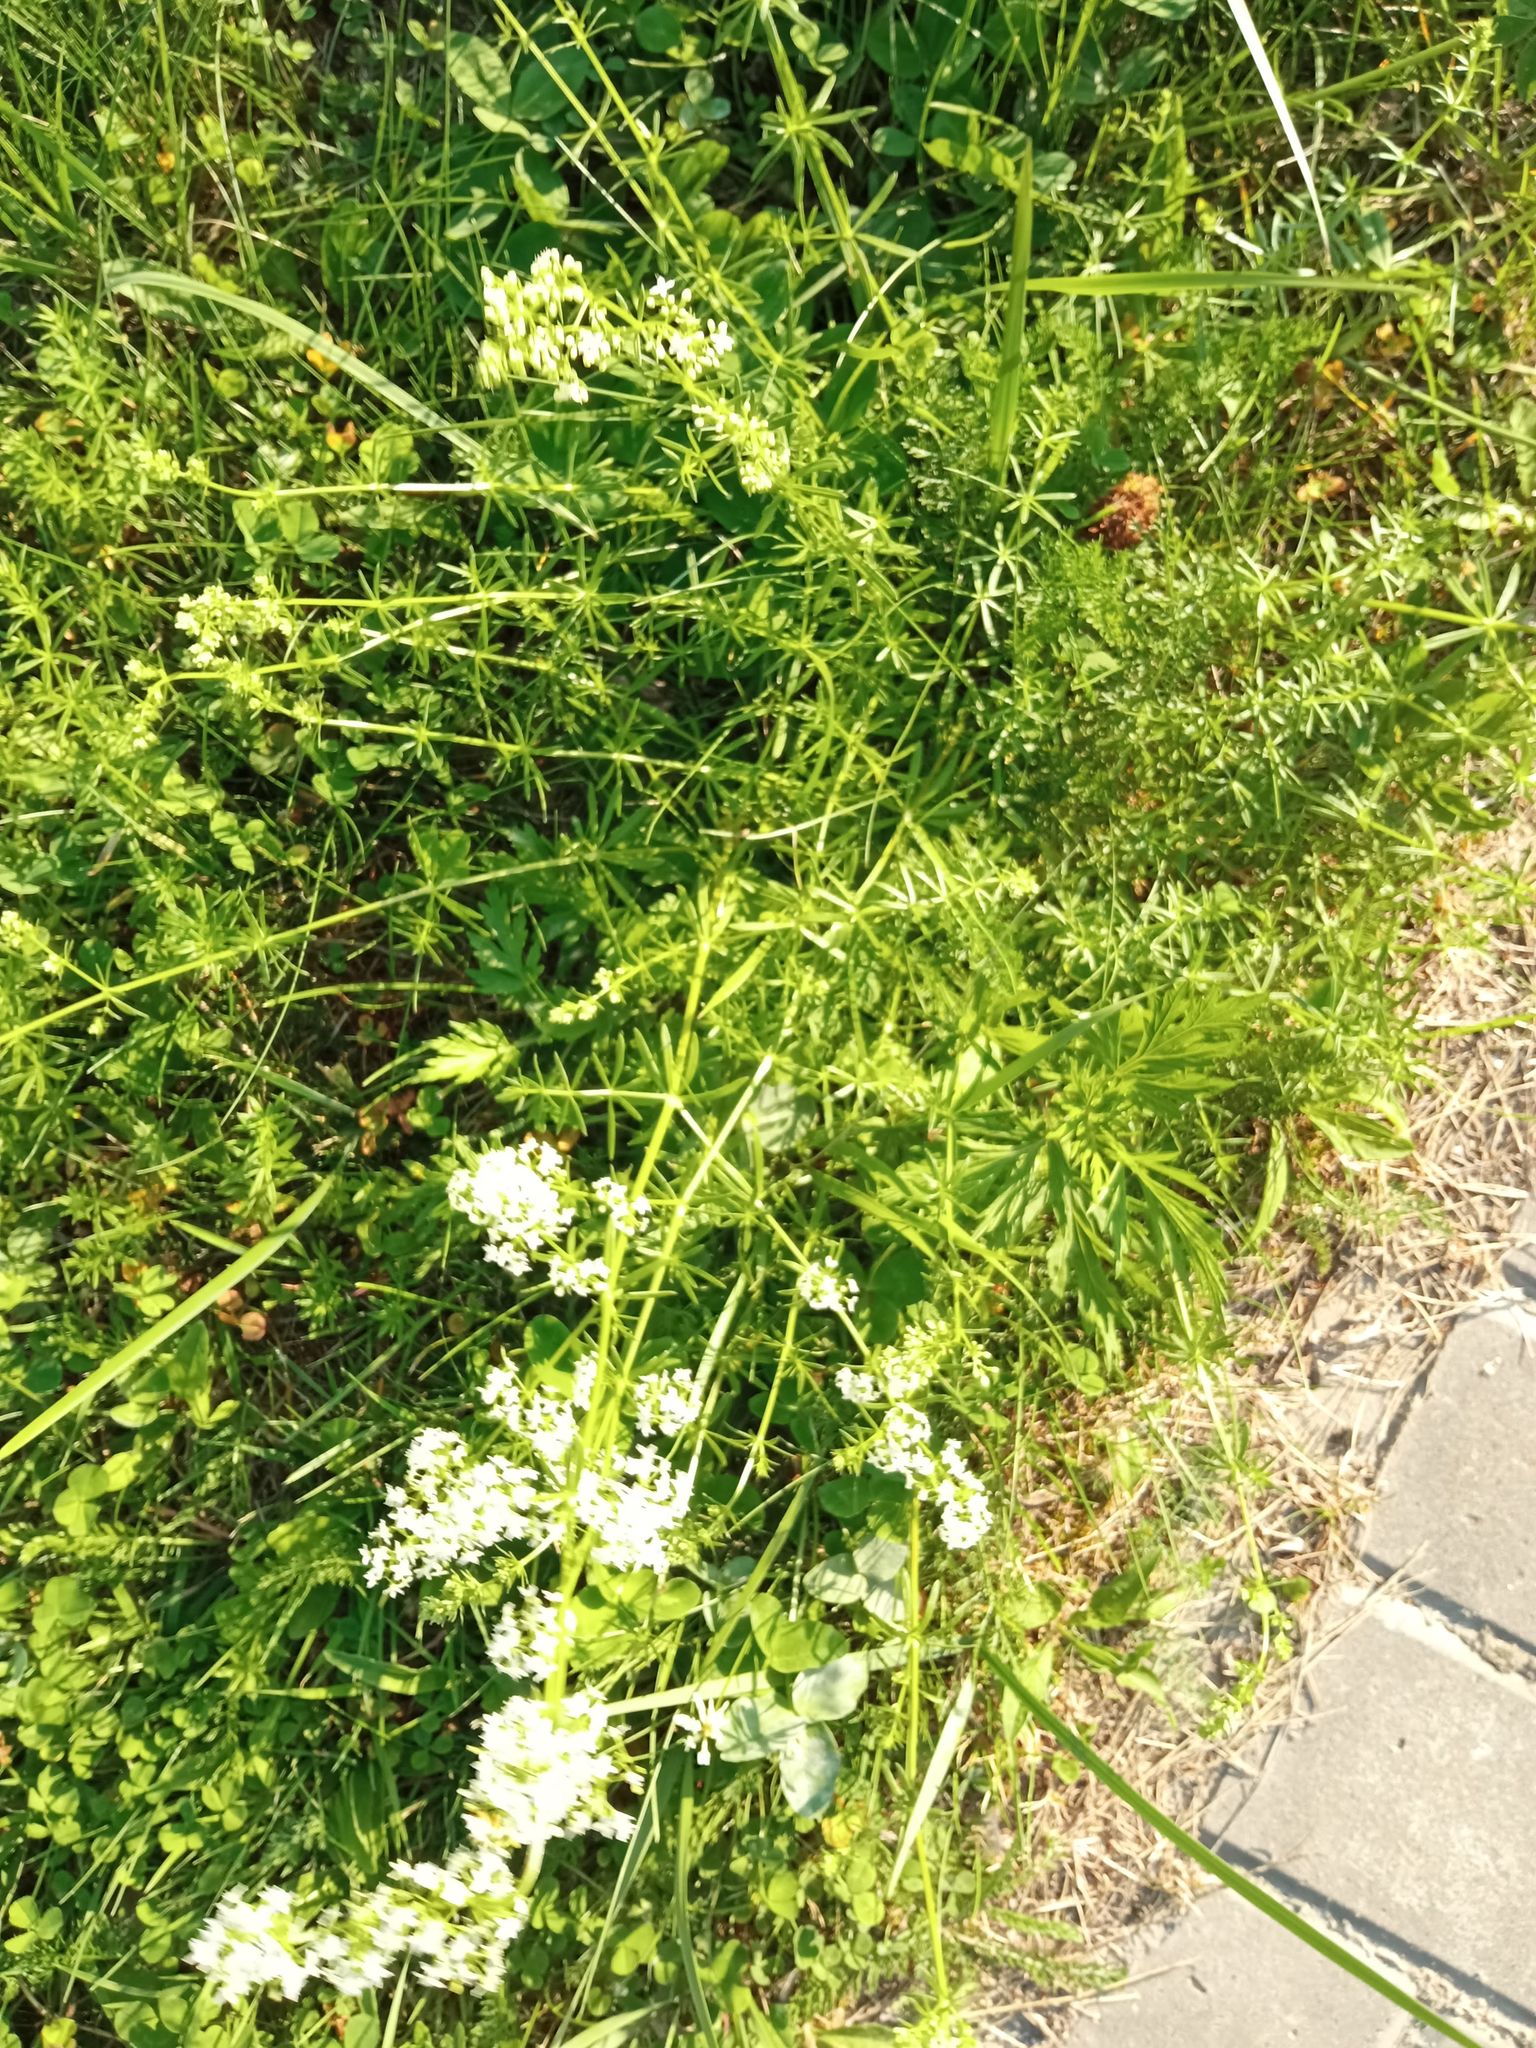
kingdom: Plantae
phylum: Tracheophyta
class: Magnoliopsida
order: Gentianales
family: Rubiaceae
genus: Galium
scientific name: Galium mollugo
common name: Hedge bedstraw
